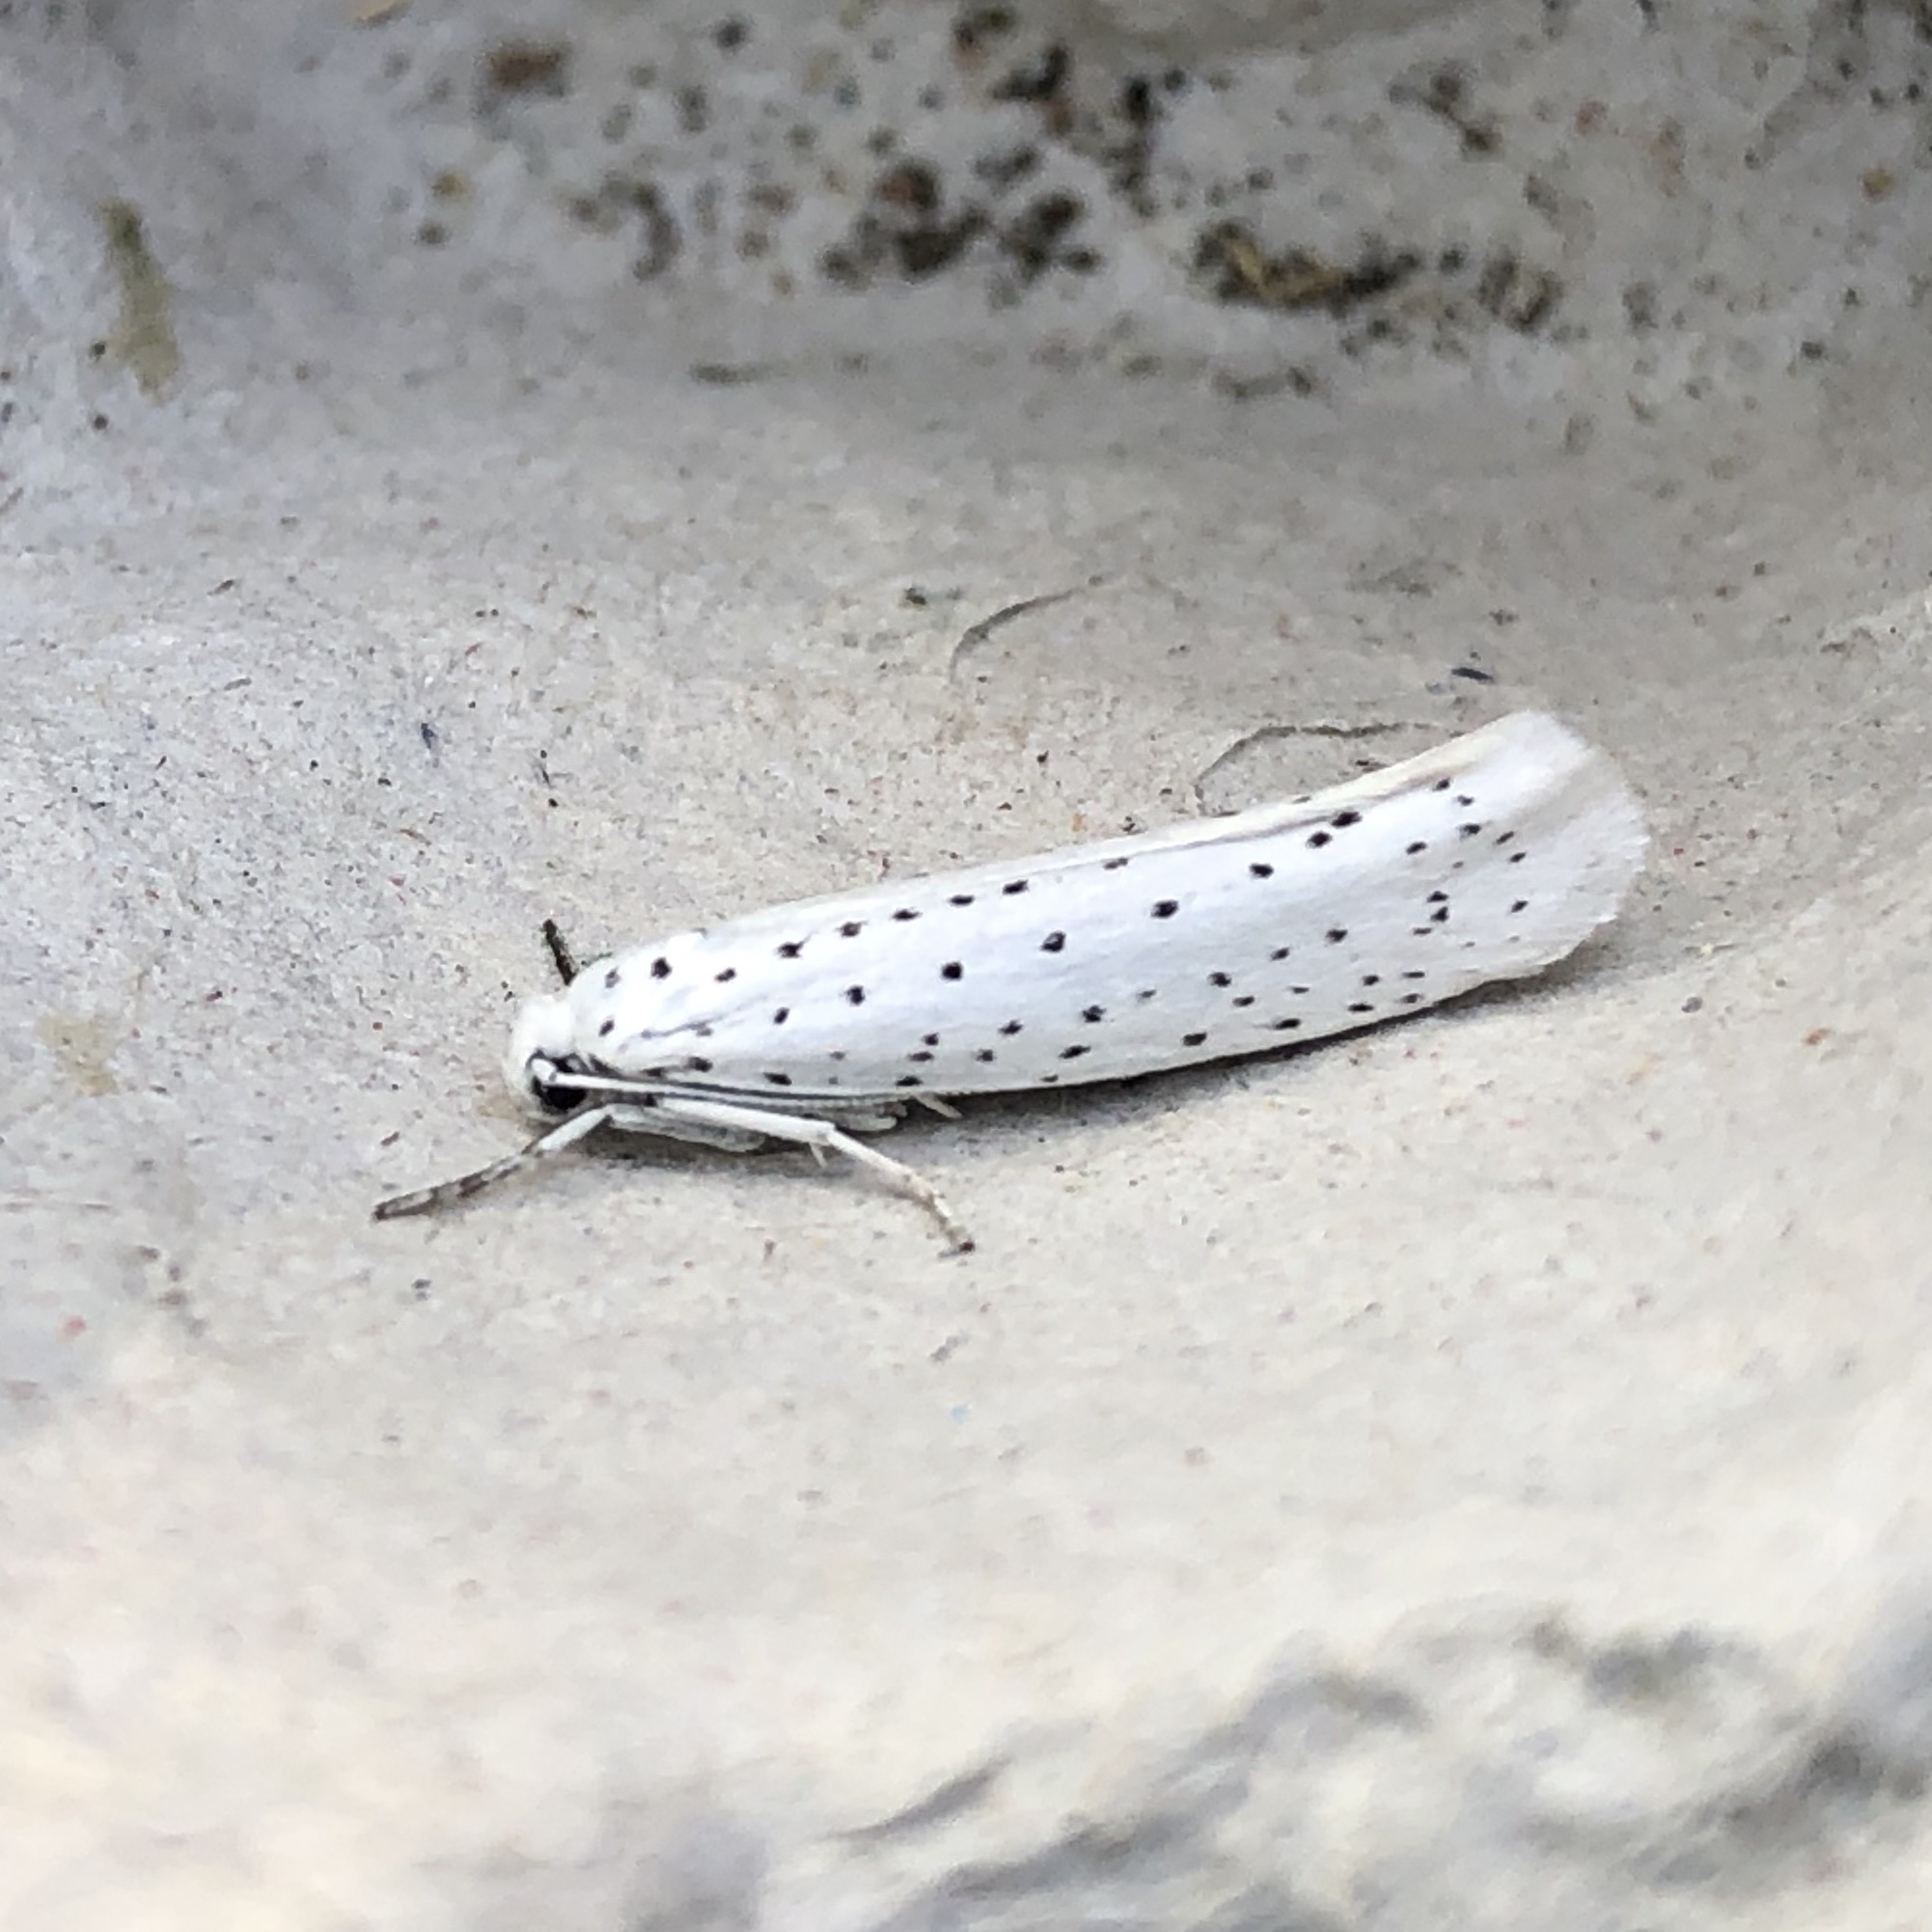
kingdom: Animalia
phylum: Arthropoda
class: Insecta
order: Lepidoptera
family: Yponomeutidae
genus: Yponomeuta
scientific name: Yponomeuta evonymella
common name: Bird-cherry ermine
